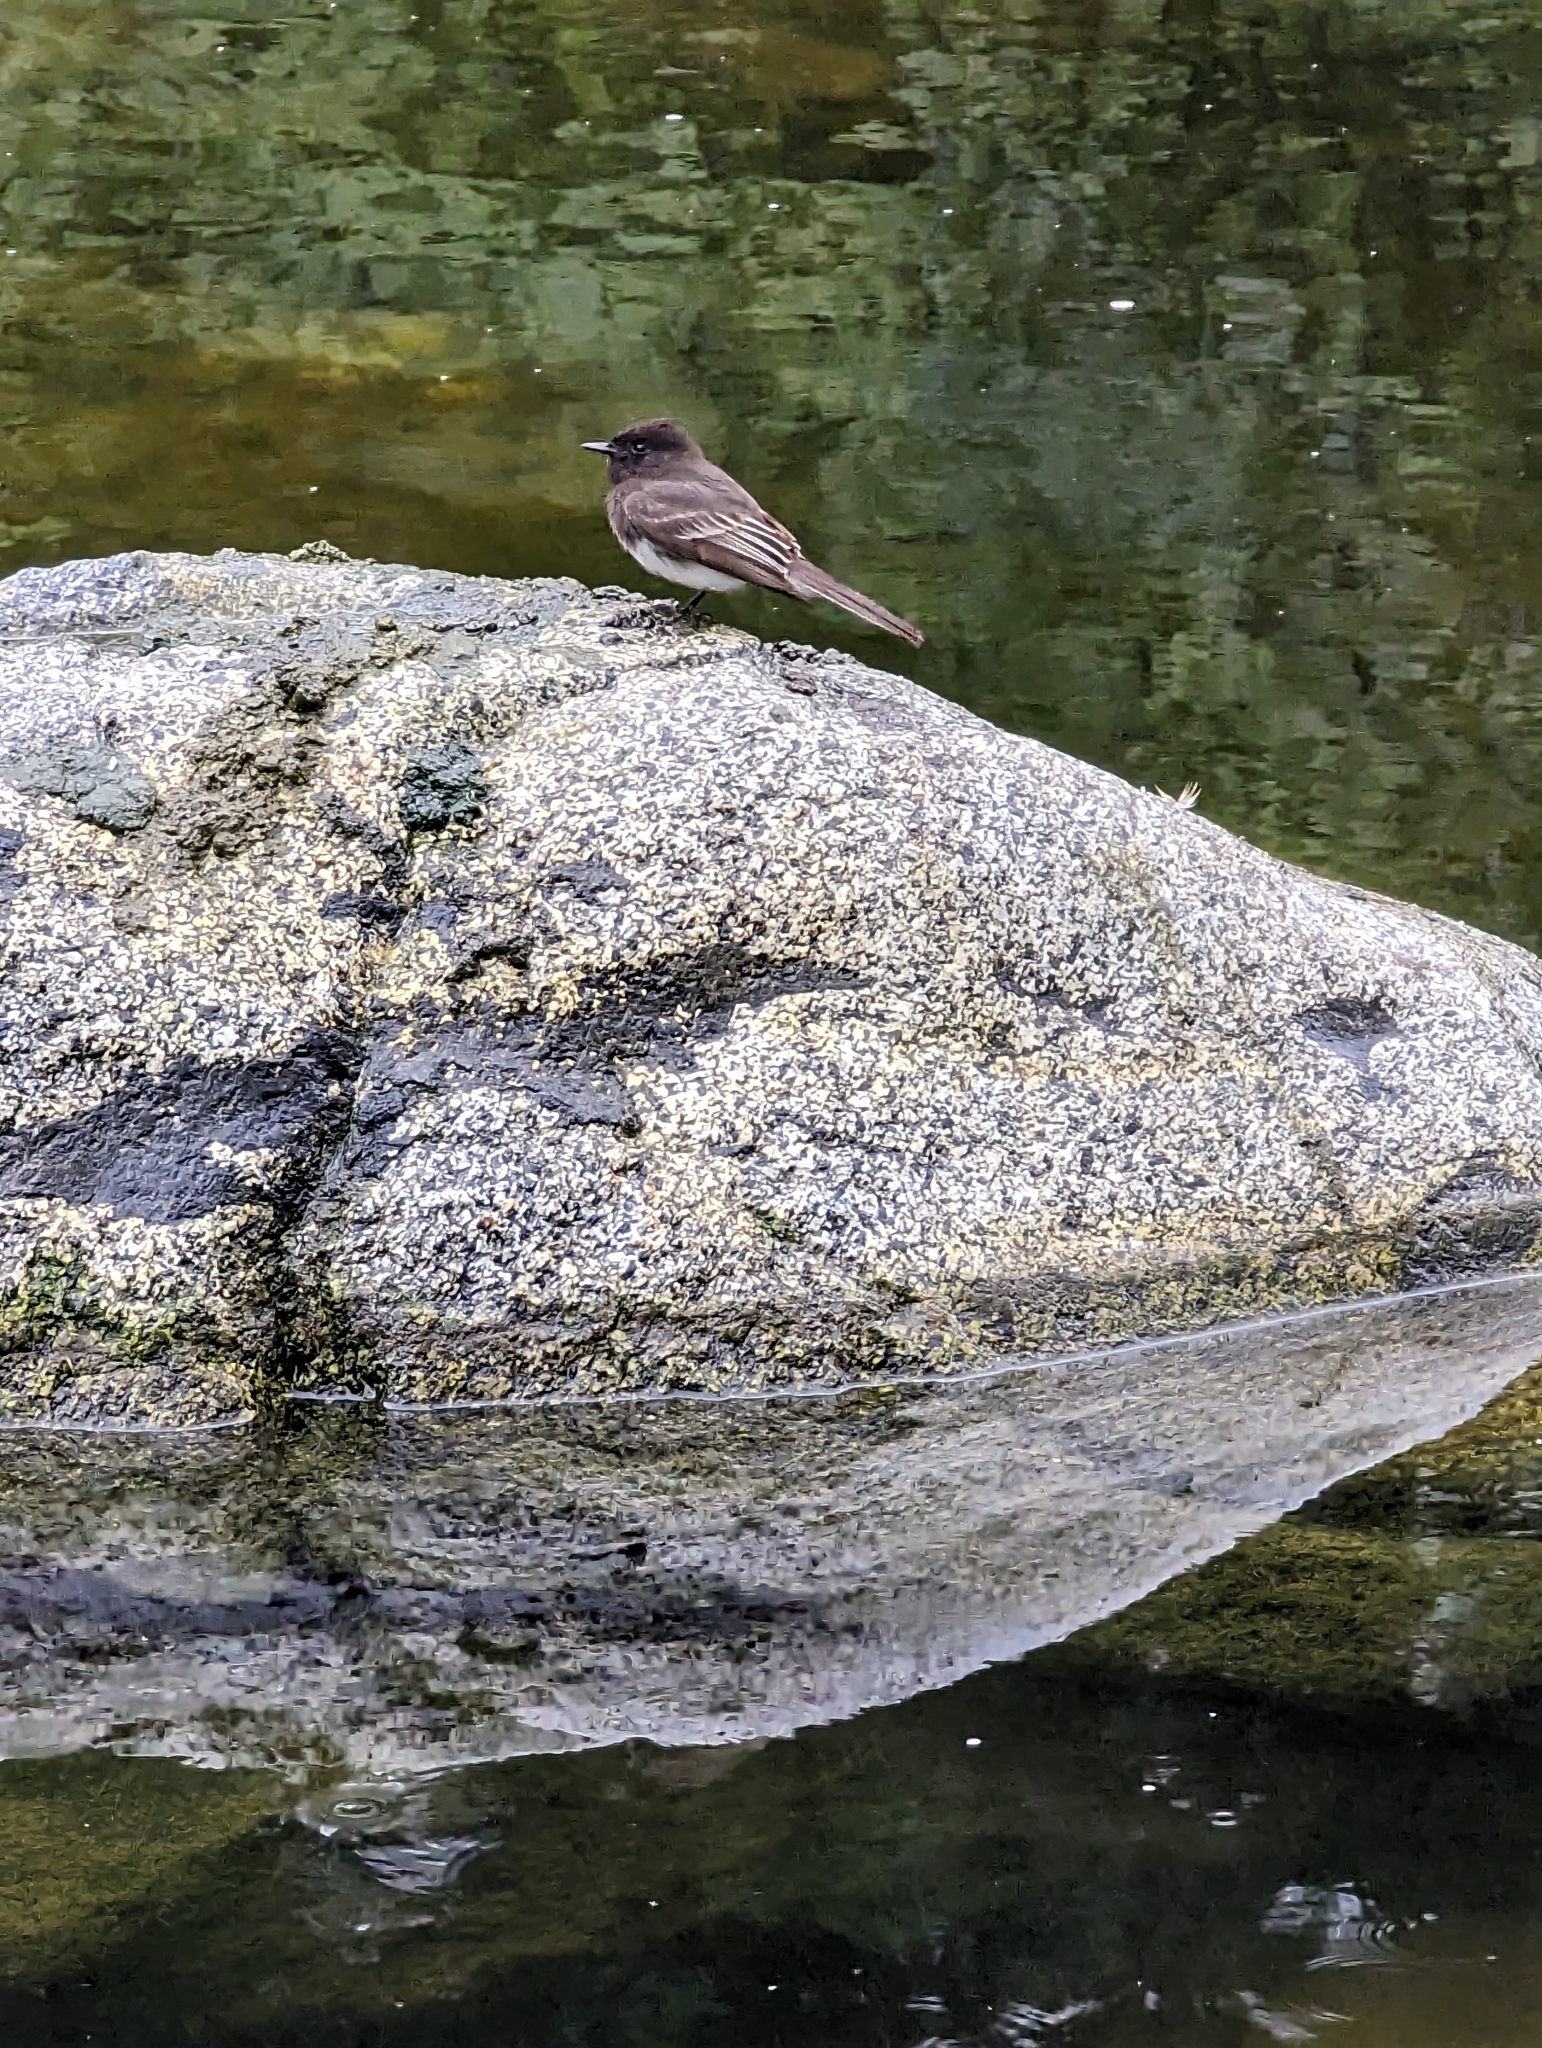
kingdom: Animalia
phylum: Chordata
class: Aves
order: Passeriformes
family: Tyrannidae
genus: Sayornis
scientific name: Sayornis nigricans
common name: Black phoebe
